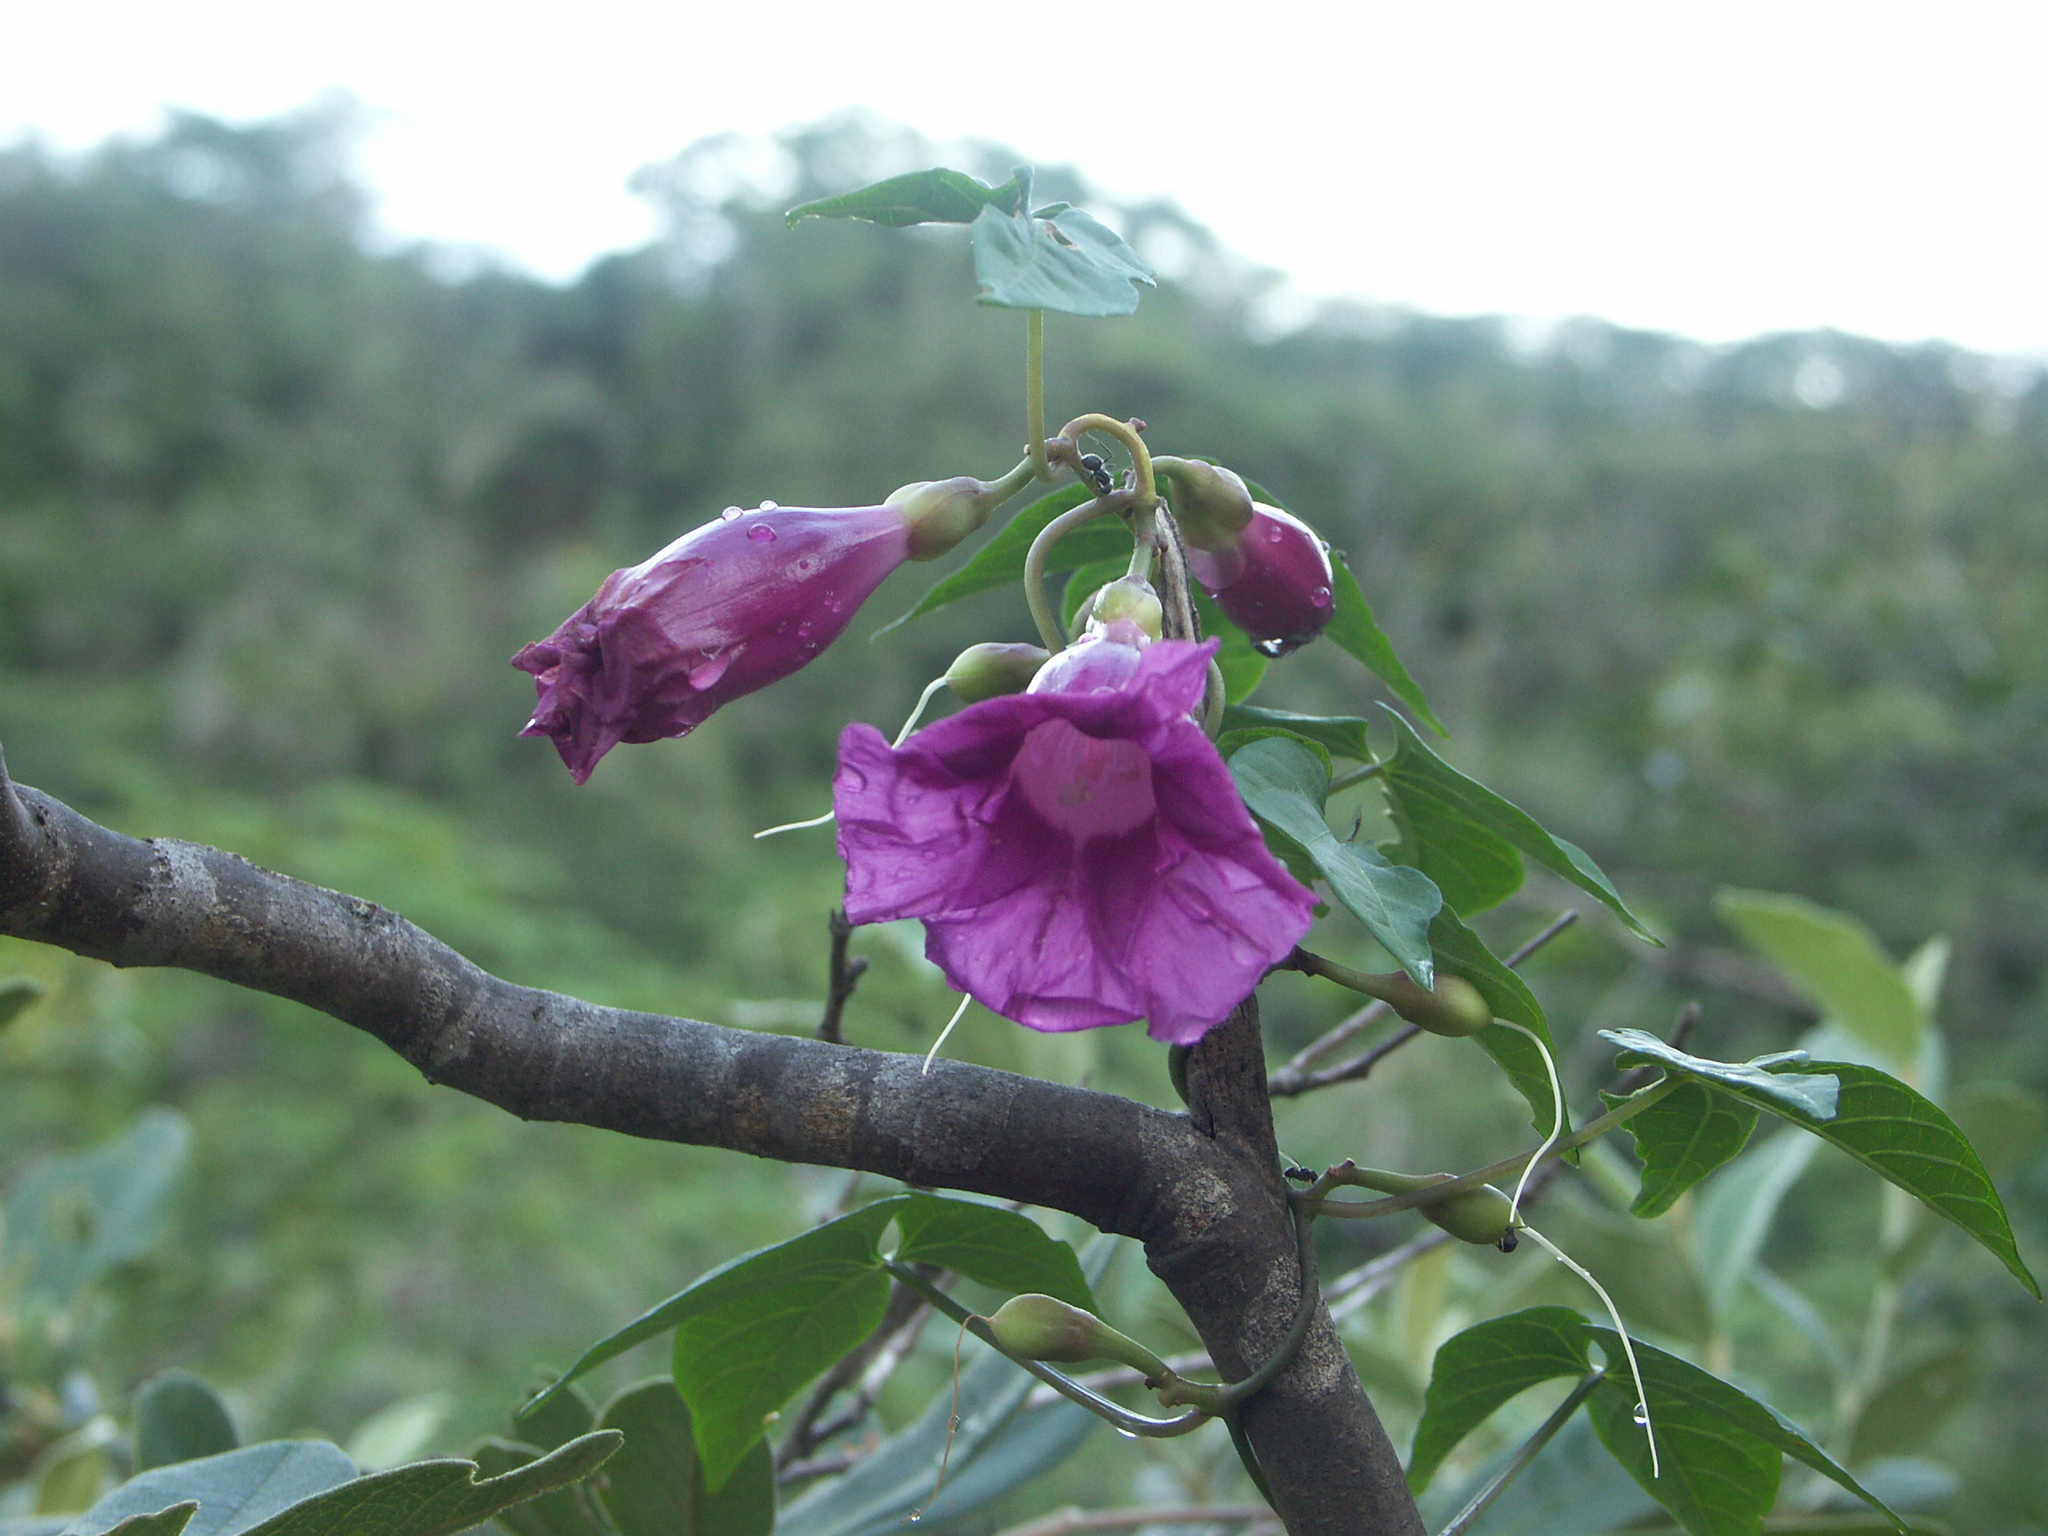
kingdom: Plantae
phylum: Tracheophyta
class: Magnoliopsida
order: Solanales
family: Convolvulaceae
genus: Ipomoea
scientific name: Ipomoea blanchetii
